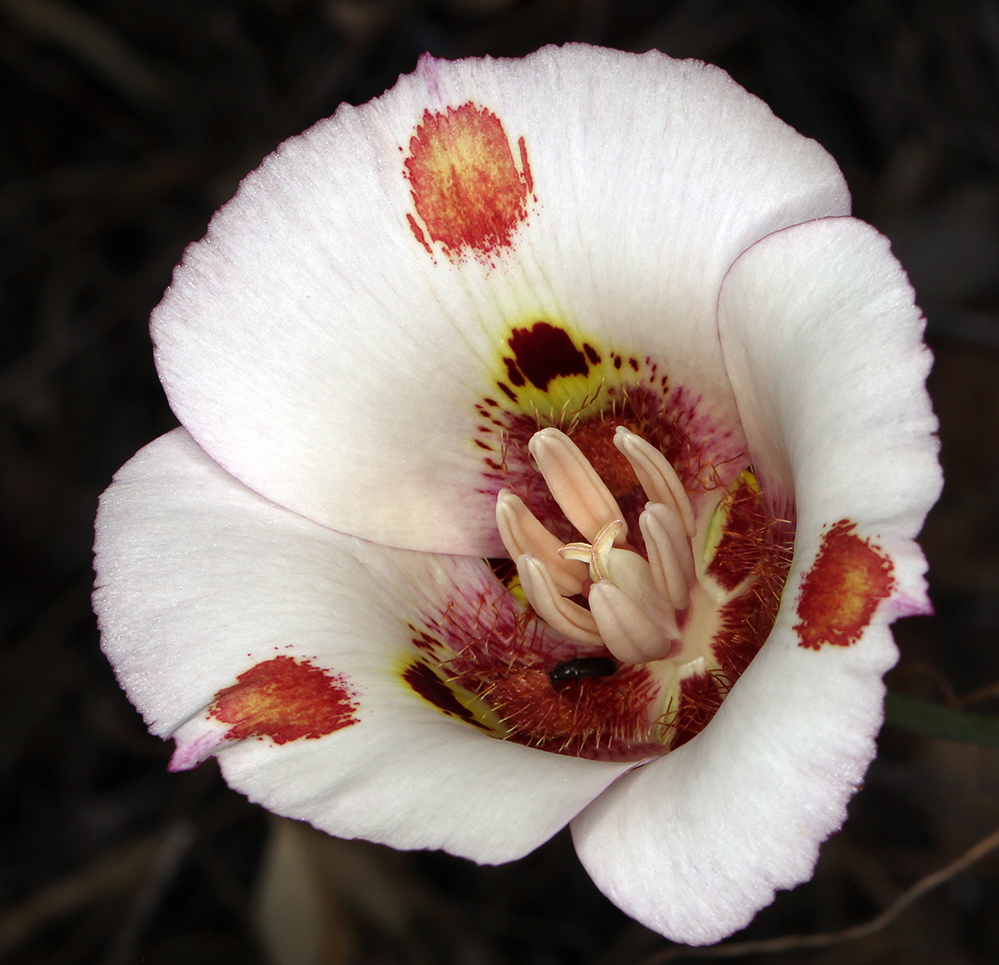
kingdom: Plantae
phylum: Tracheophyta
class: Liliopsida
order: Liliales
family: Liliaceae
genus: Calochortus
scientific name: Calochortus venustus
